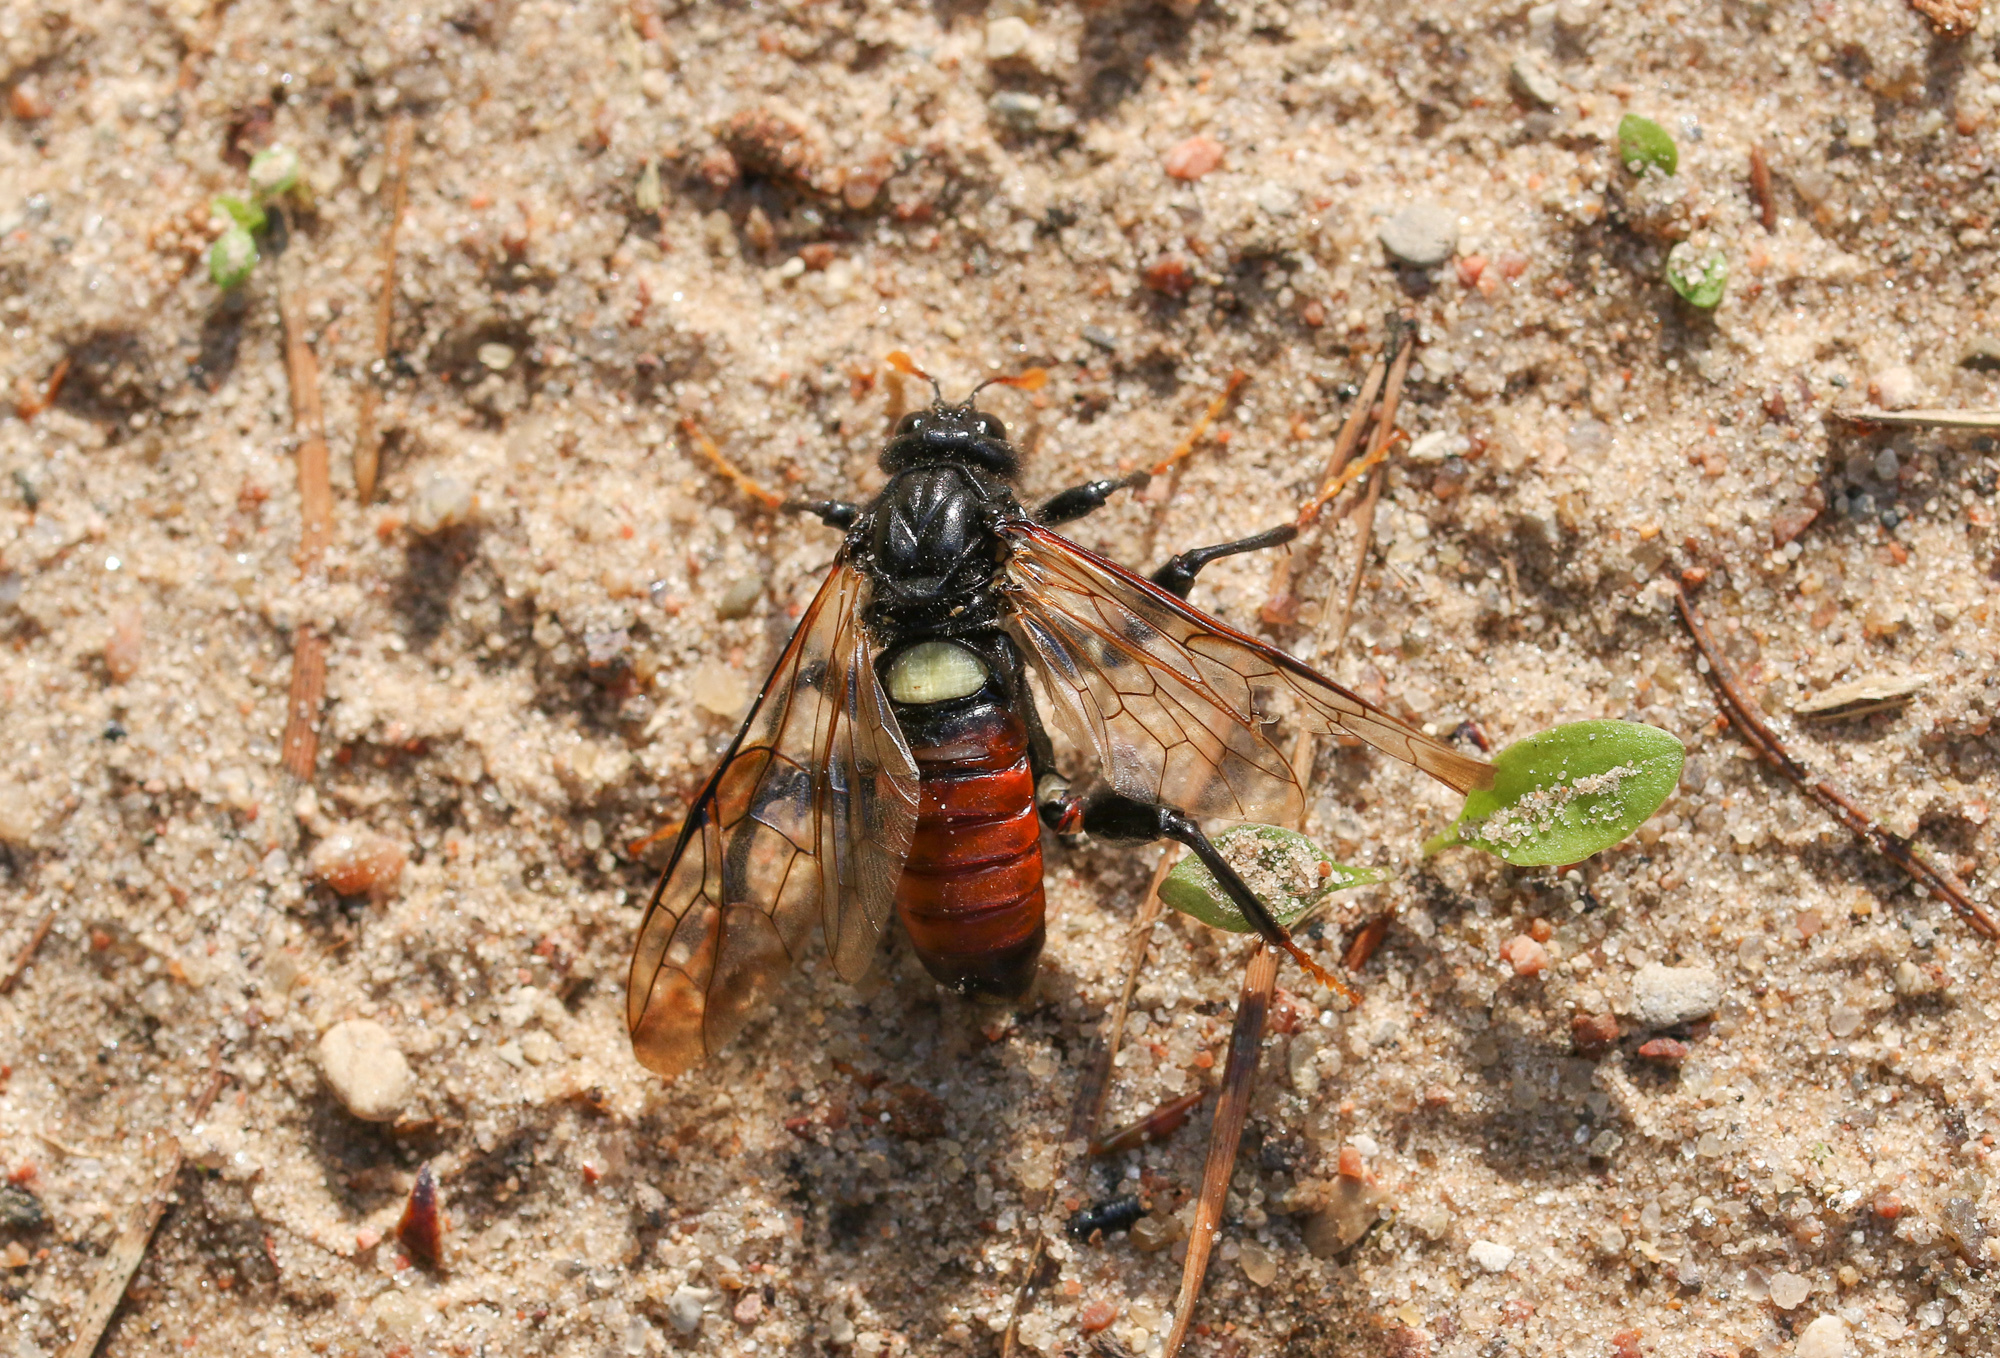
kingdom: Animalia
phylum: Arthropoda
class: Insecta
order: Hymenoptera
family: Cimbicidae
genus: Cimbex
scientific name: Cimbex femoratus
